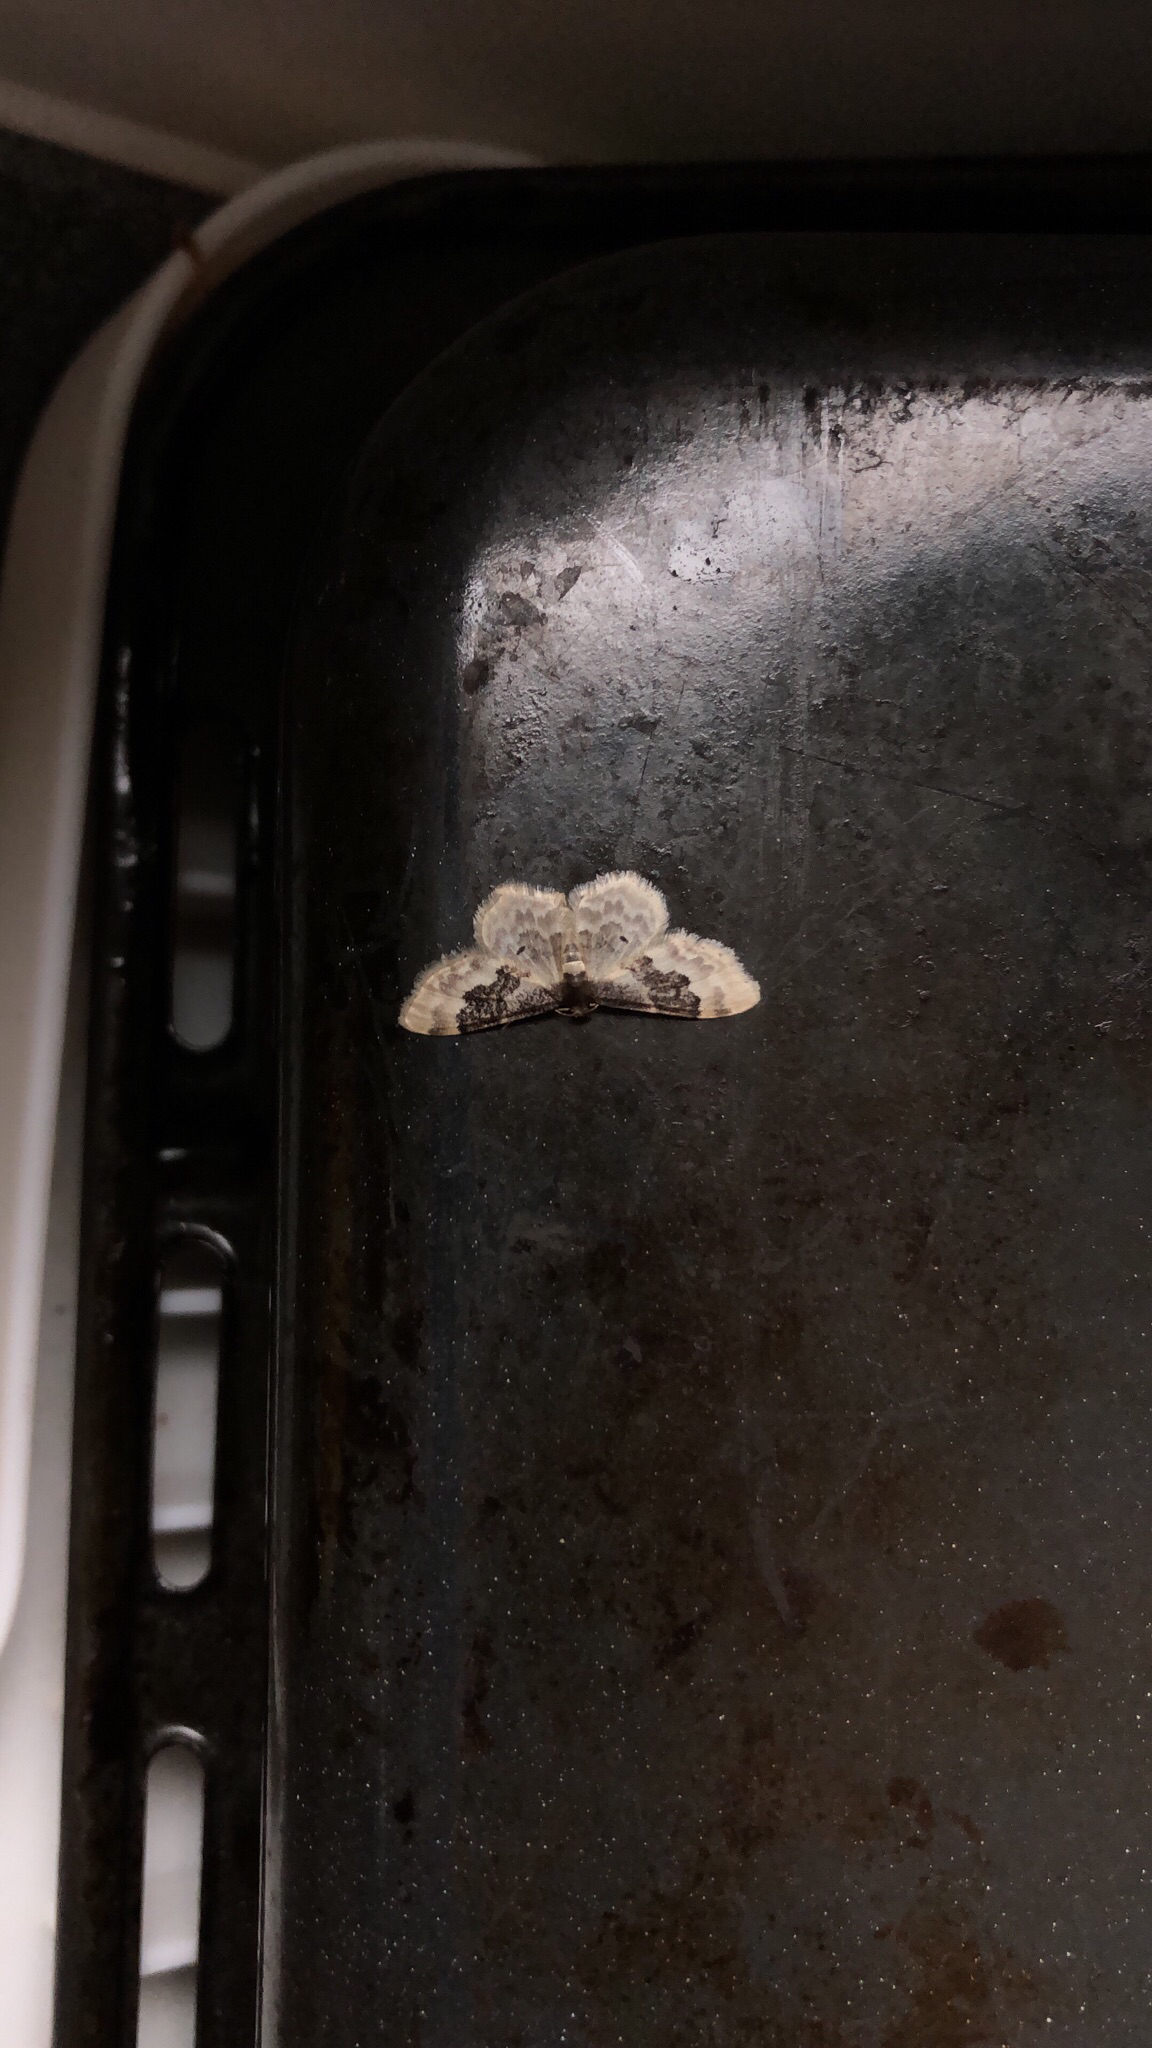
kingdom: Animalia
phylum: Arthropoda
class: Insecta
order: Lepidoptera
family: Geometridae
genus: Idaea
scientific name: Idaea rusticata
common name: Least carpet
